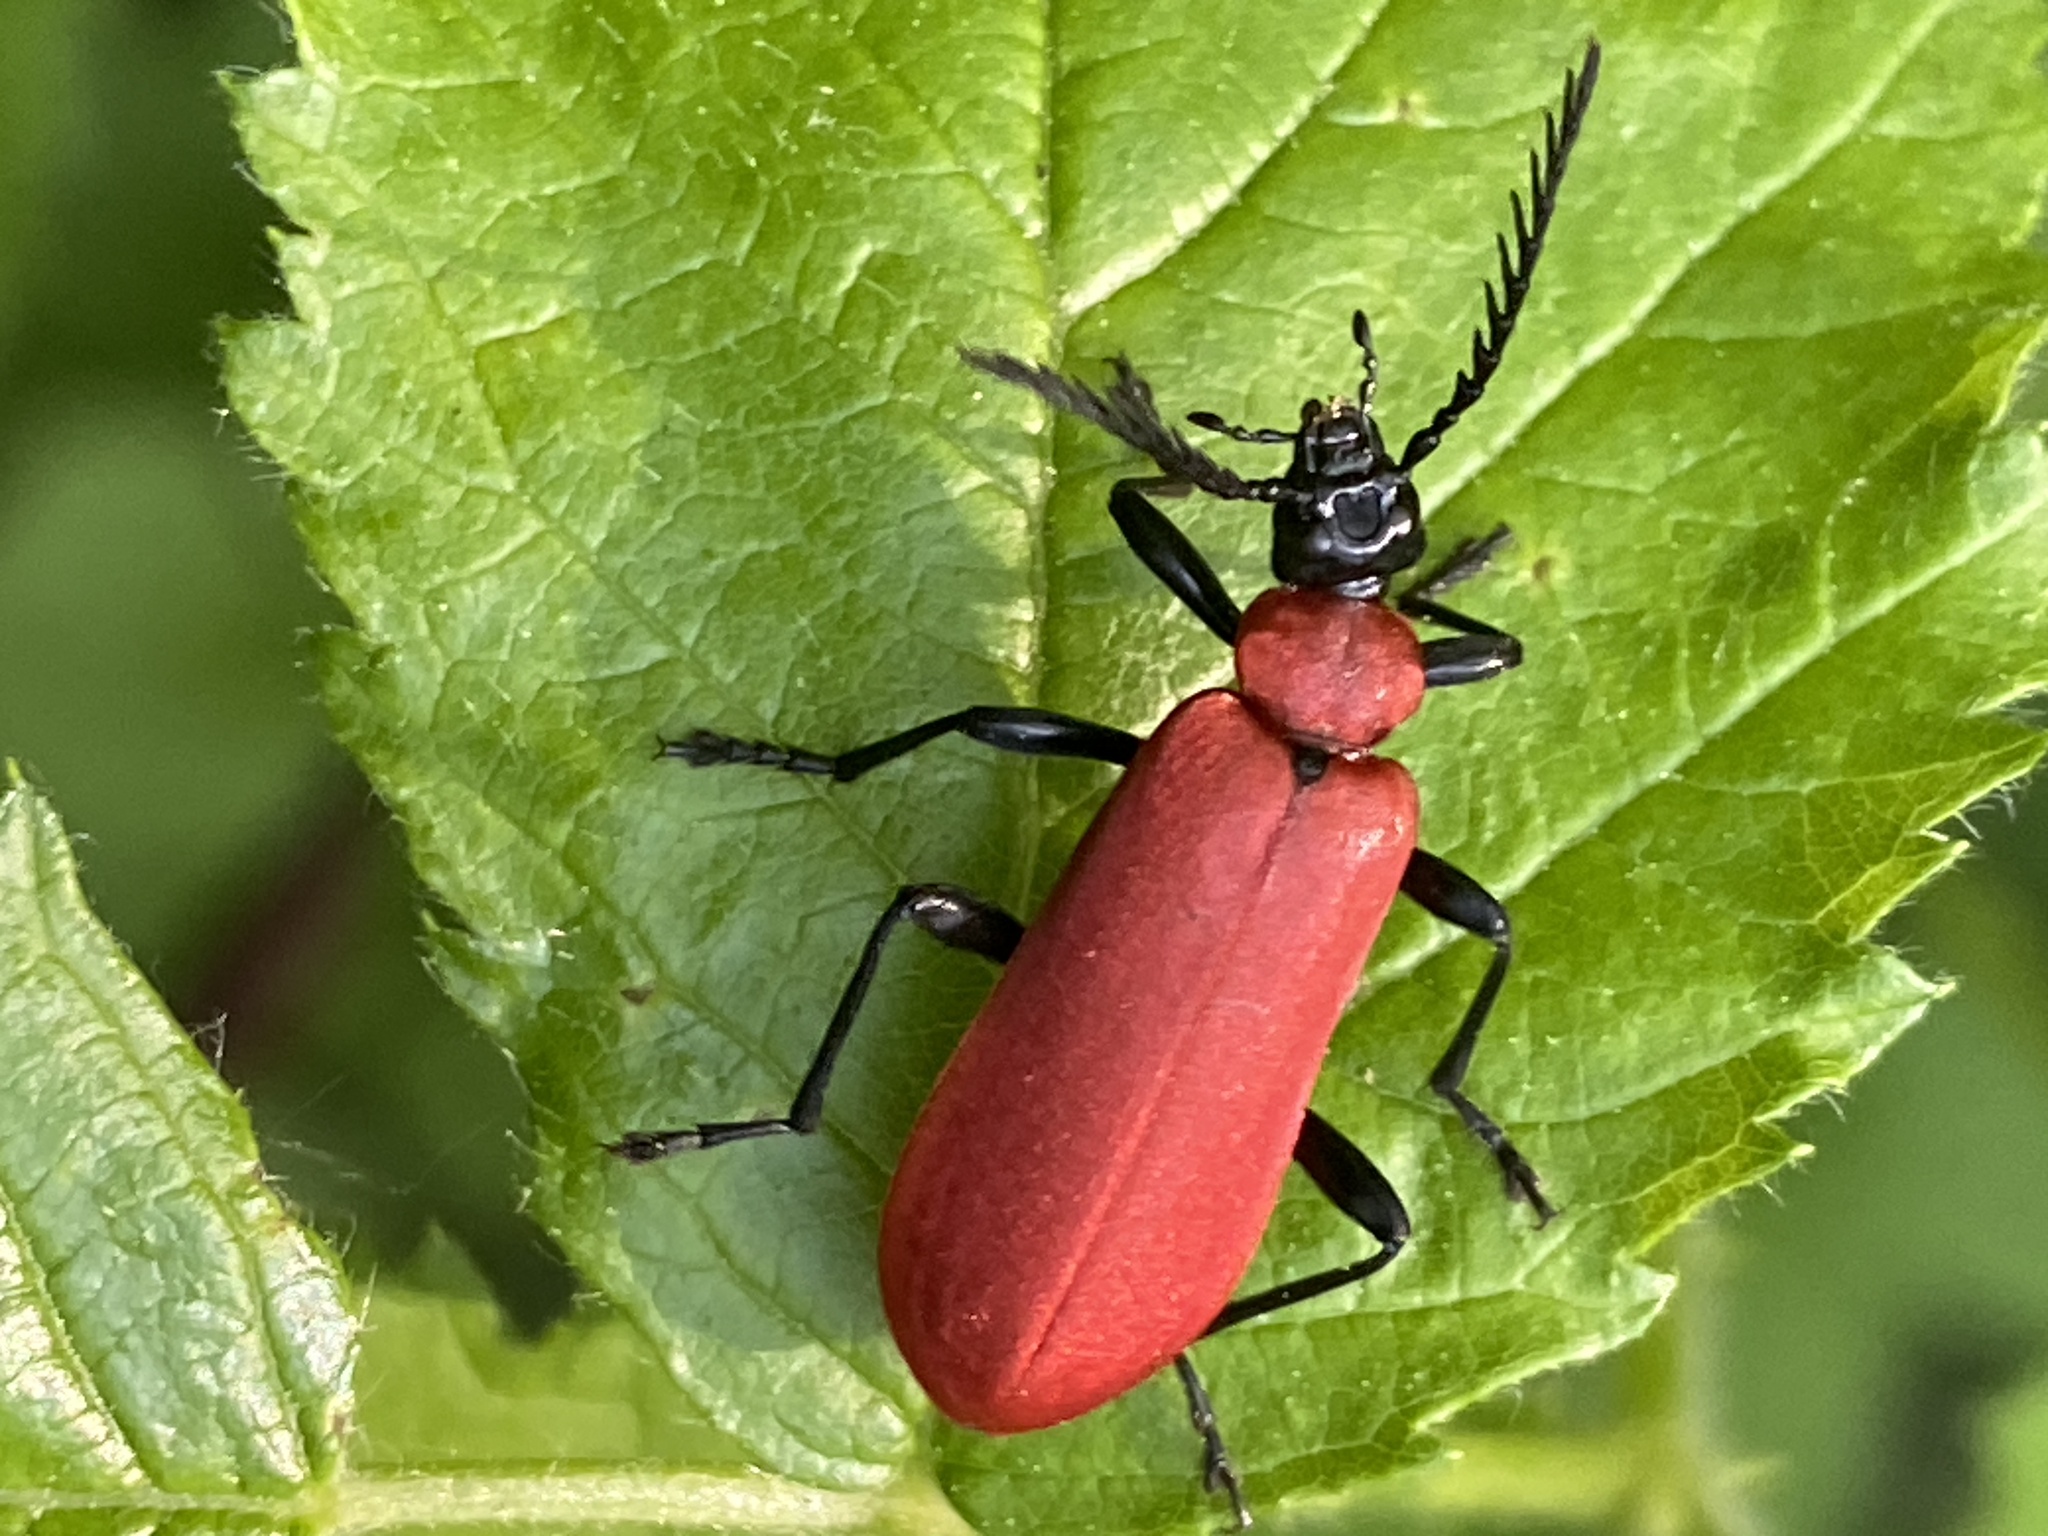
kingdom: Animalia
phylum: Arthropoda
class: Insecta
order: Coleoptera
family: Pyrochroidae
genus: Pyrochroa
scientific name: Pyrochroa coccinea
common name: Black-headed cardinal beetle
